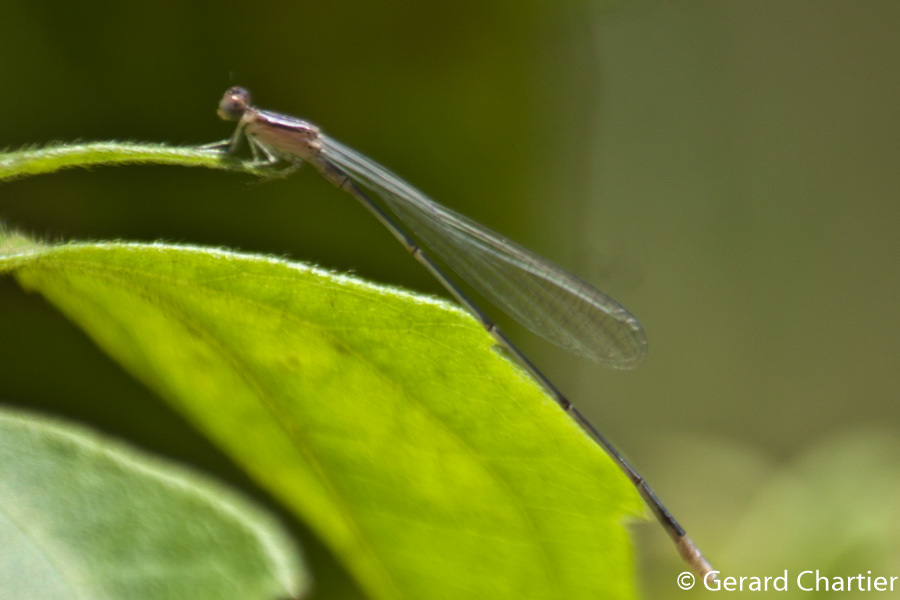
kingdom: Animalia
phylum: Arthropoda
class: Insecta
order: Odonata
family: Coenagrionidae
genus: Aciagrion
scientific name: Aciagrion hisopa
